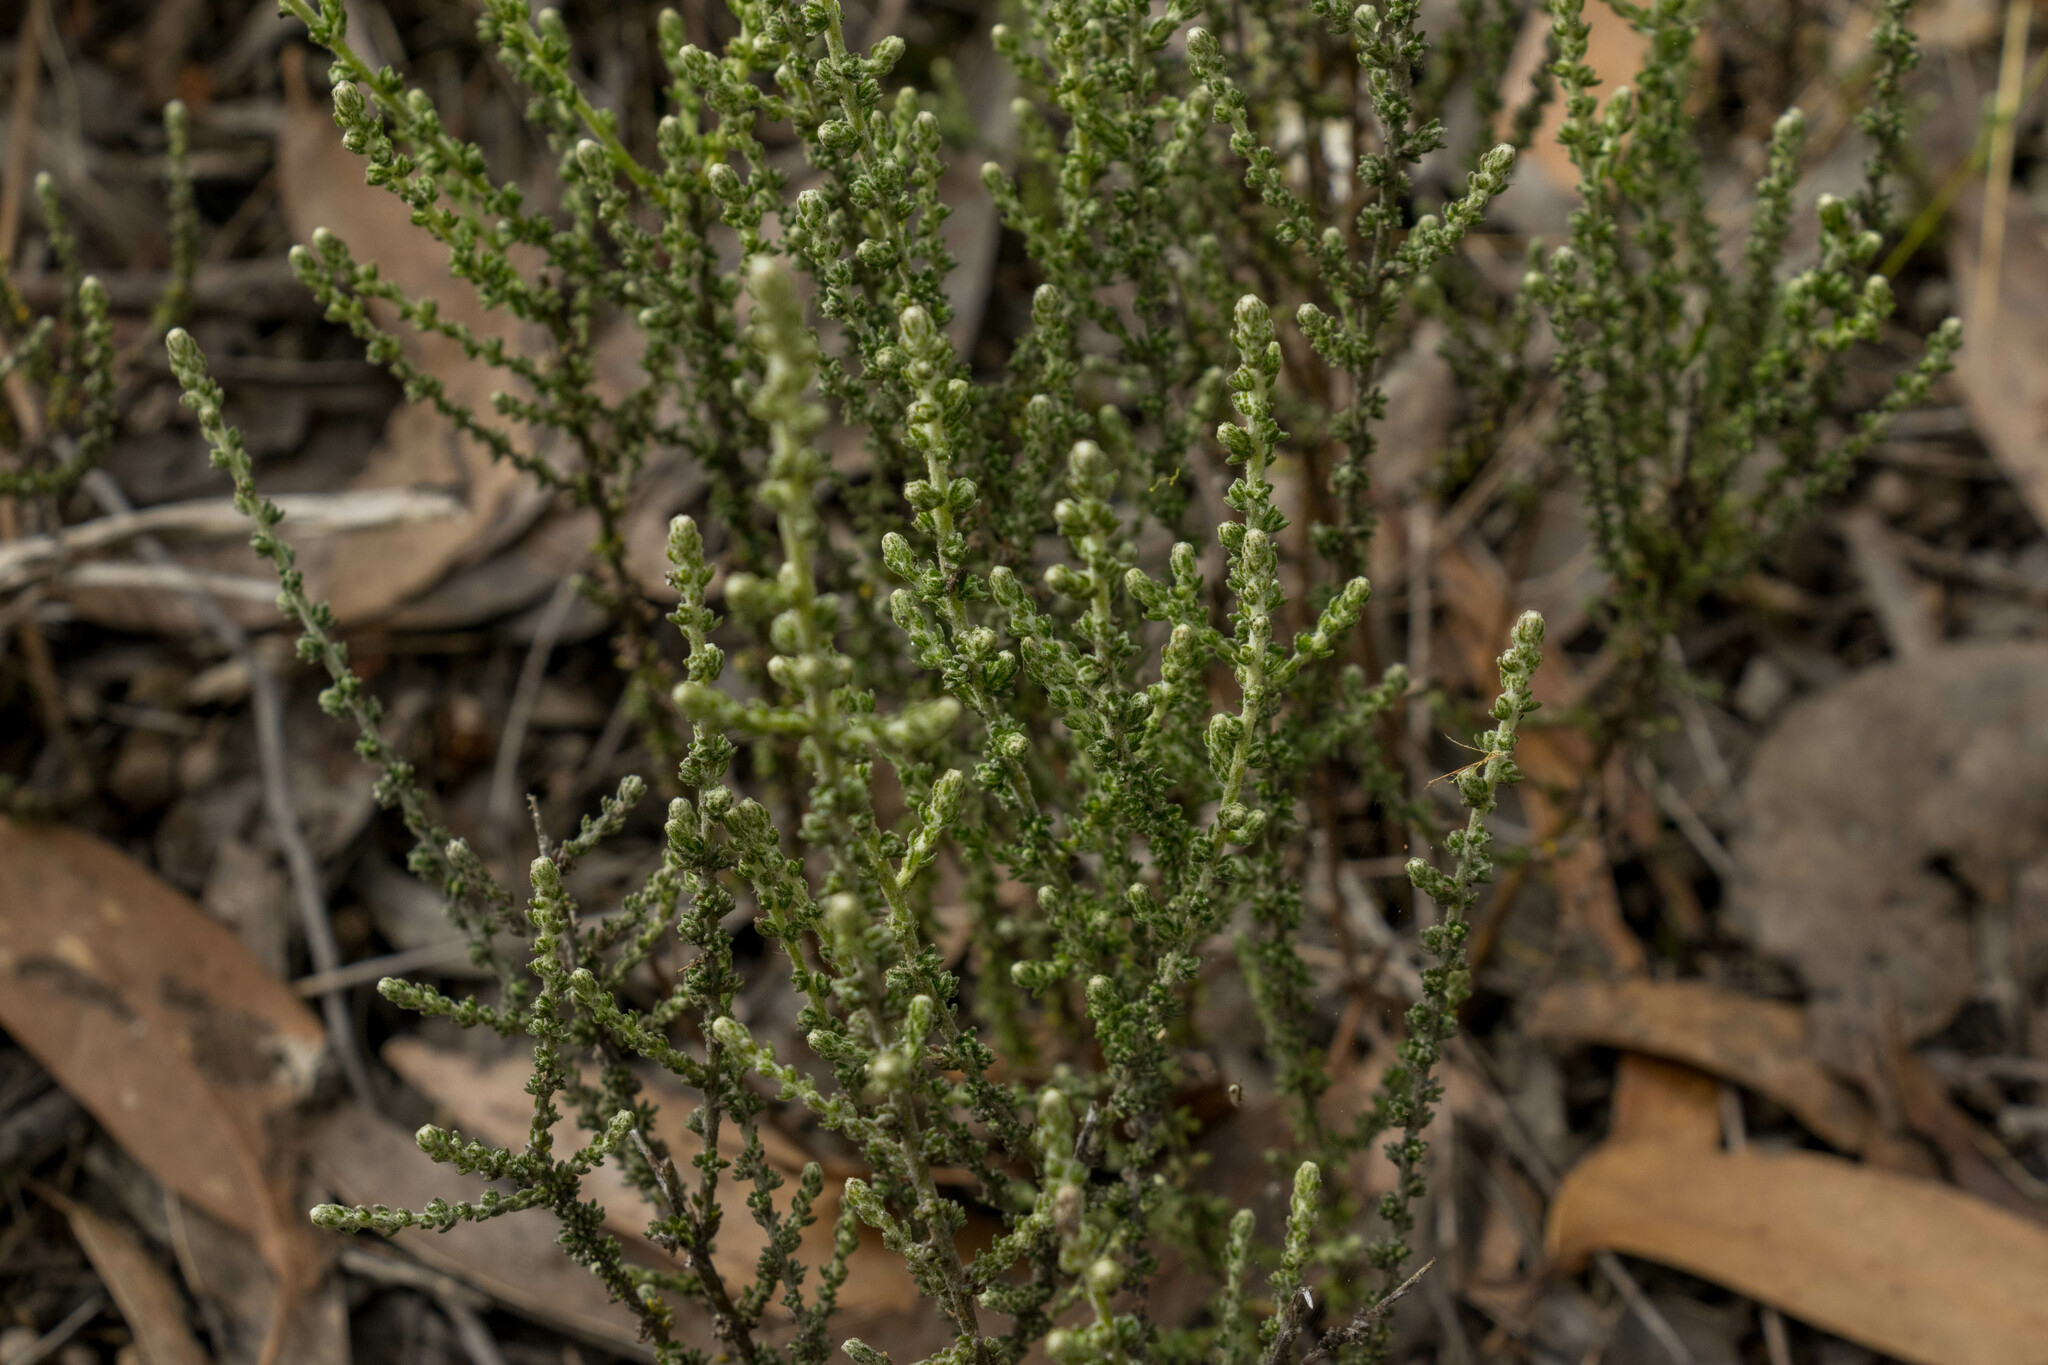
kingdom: Plantae
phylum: Tracheophyta
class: Magnoliopsida
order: Asterales
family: Asteraceae
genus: Ozothamnus
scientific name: Ozothamnus obcordatus
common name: Grey everlasting
